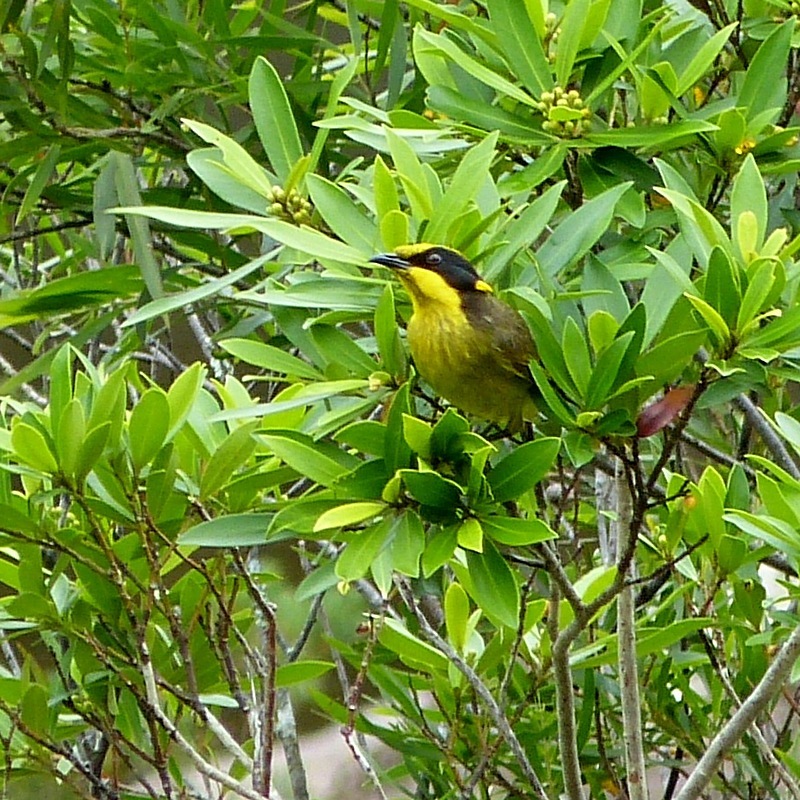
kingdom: Animalia
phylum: Chordata
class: Aves
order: Passeriformes
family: Meliphagidae
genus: Lichenostomus
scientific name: Lichenostomus melanops
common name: Yellow-tufted honeyeater
